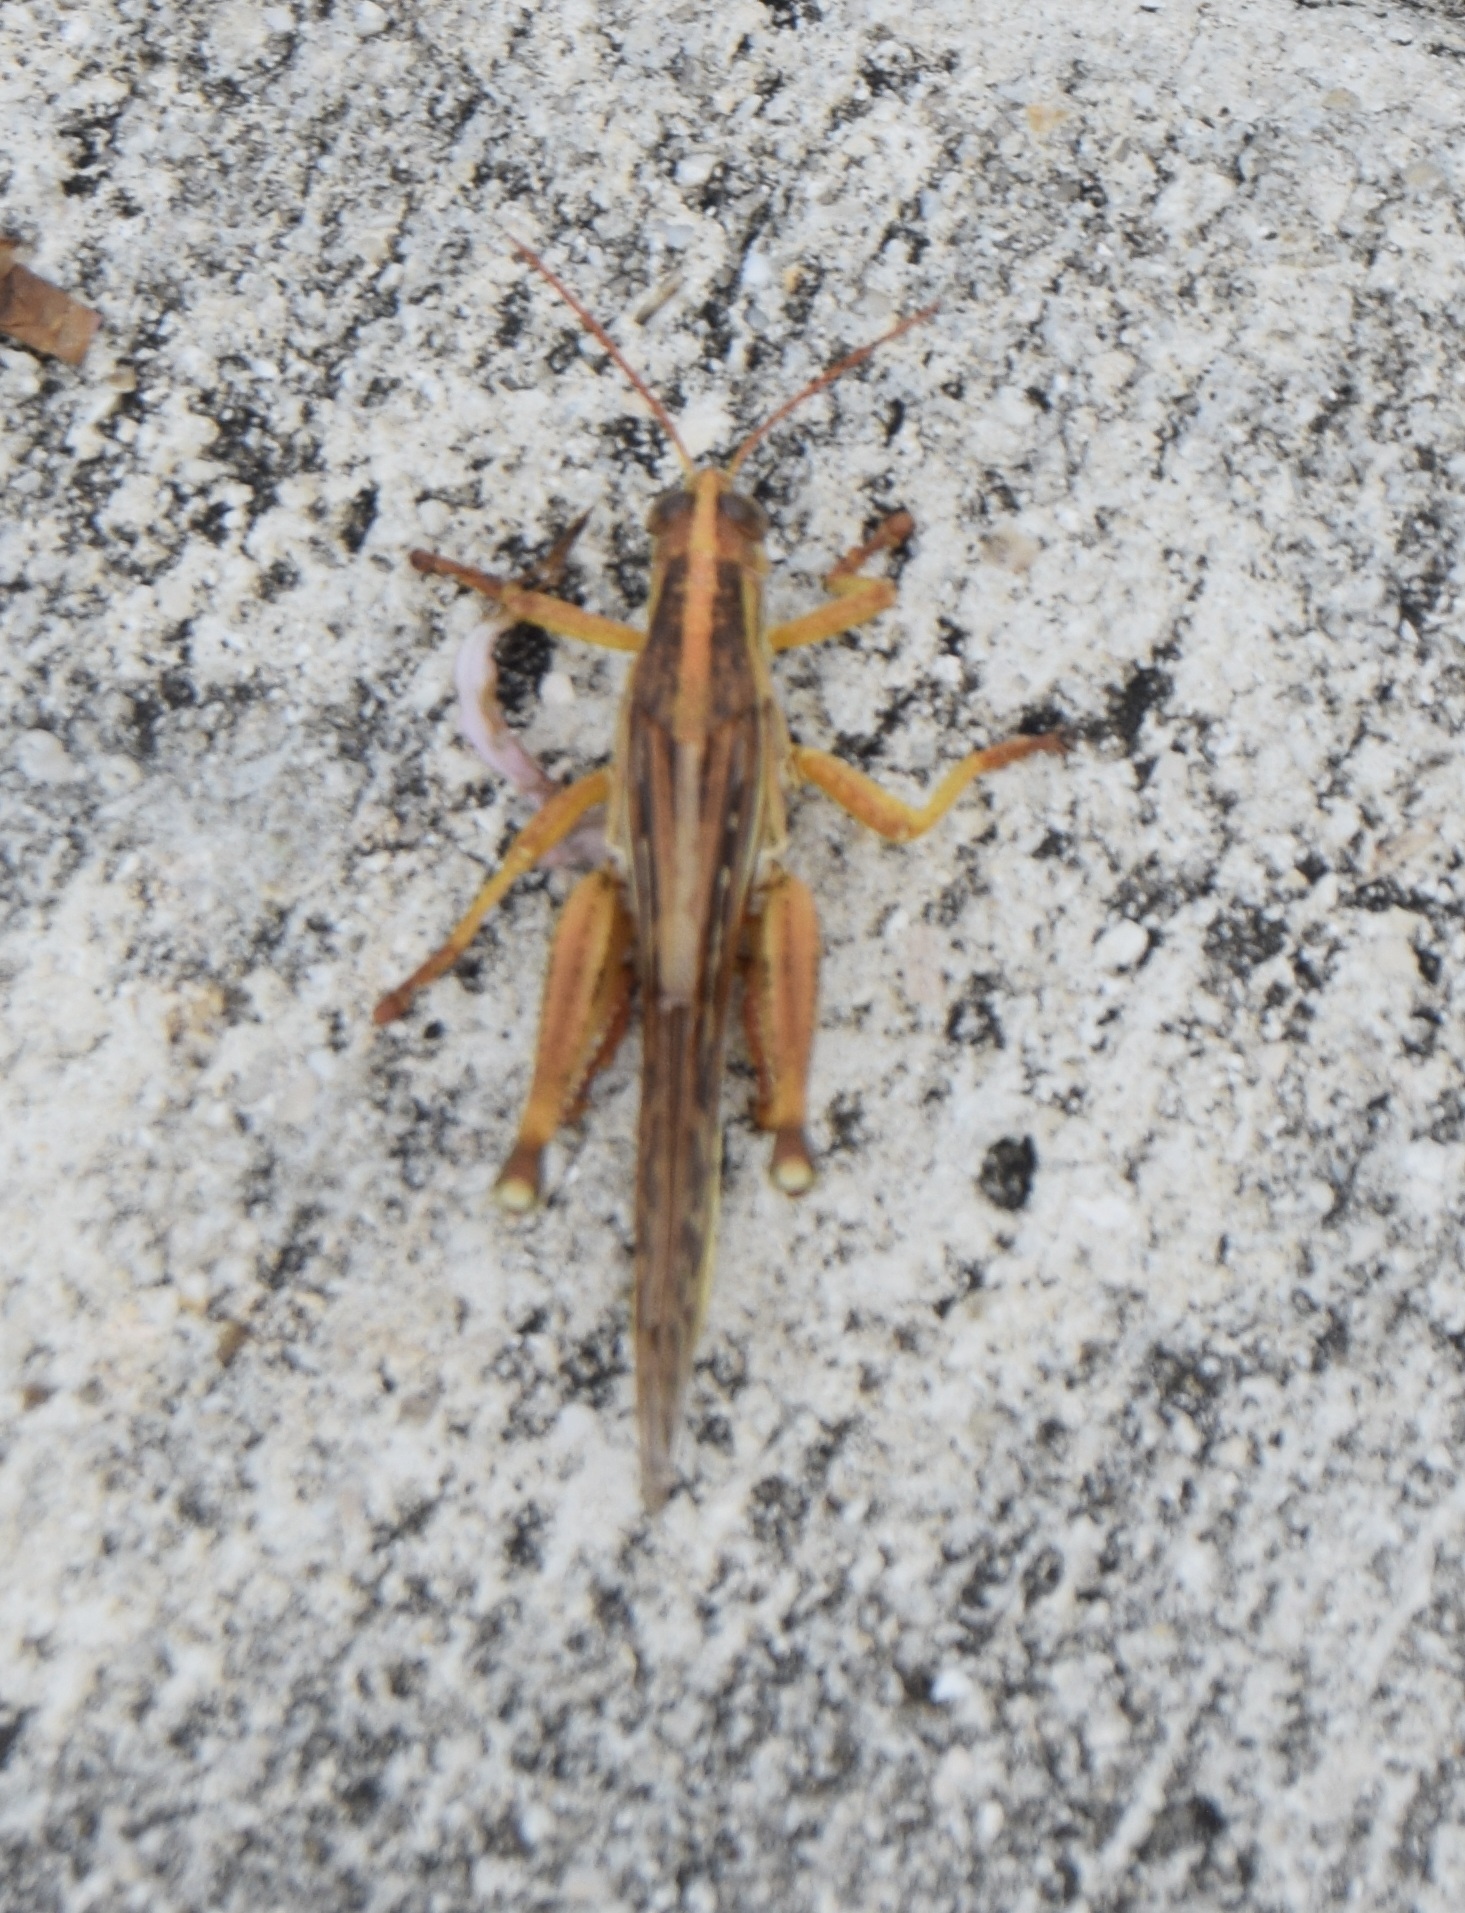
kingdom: Animalia
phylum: Arthropoda
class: Insecta
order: Orthoptera
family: Acrididae
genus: Schistocerca
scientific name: Schistocerca americana
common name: American bird locust
